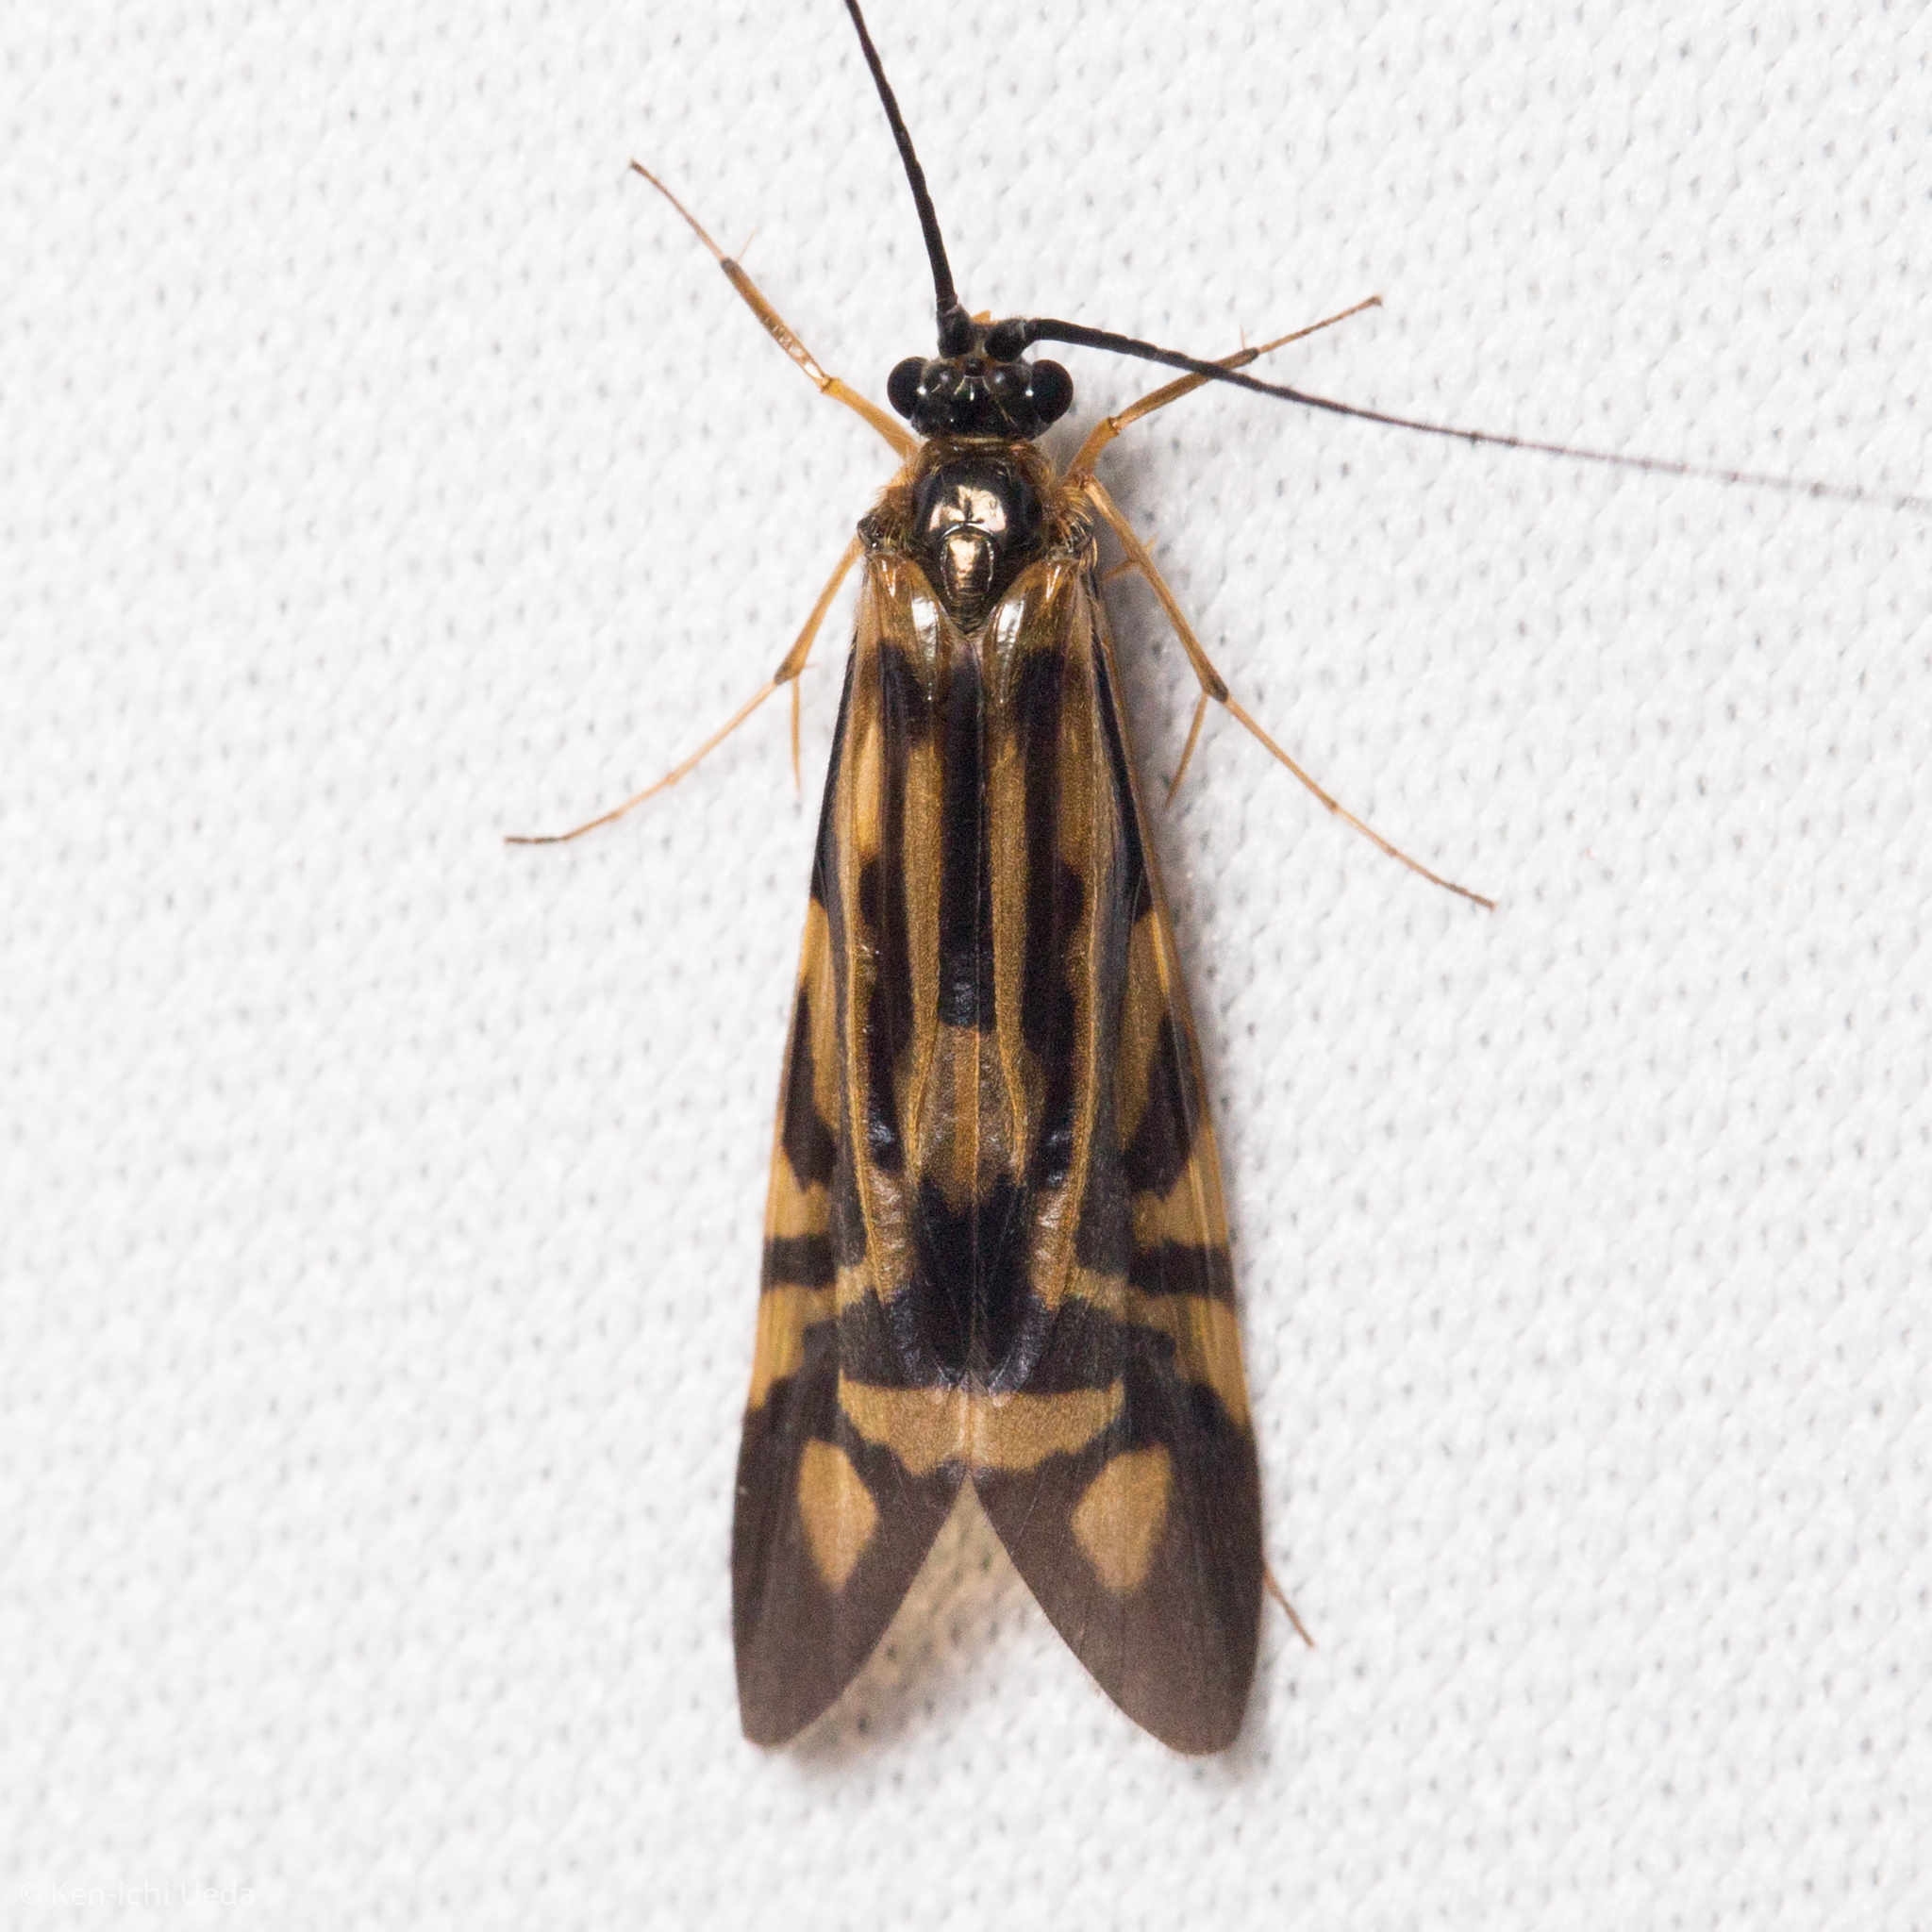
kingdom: Animalia
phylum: Arthropoda
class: Insecta
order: Trichoptera
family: Hydropsychidae
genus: Macrostemum
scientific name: Macrostemum zebratum
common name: Zebra caddisfly
